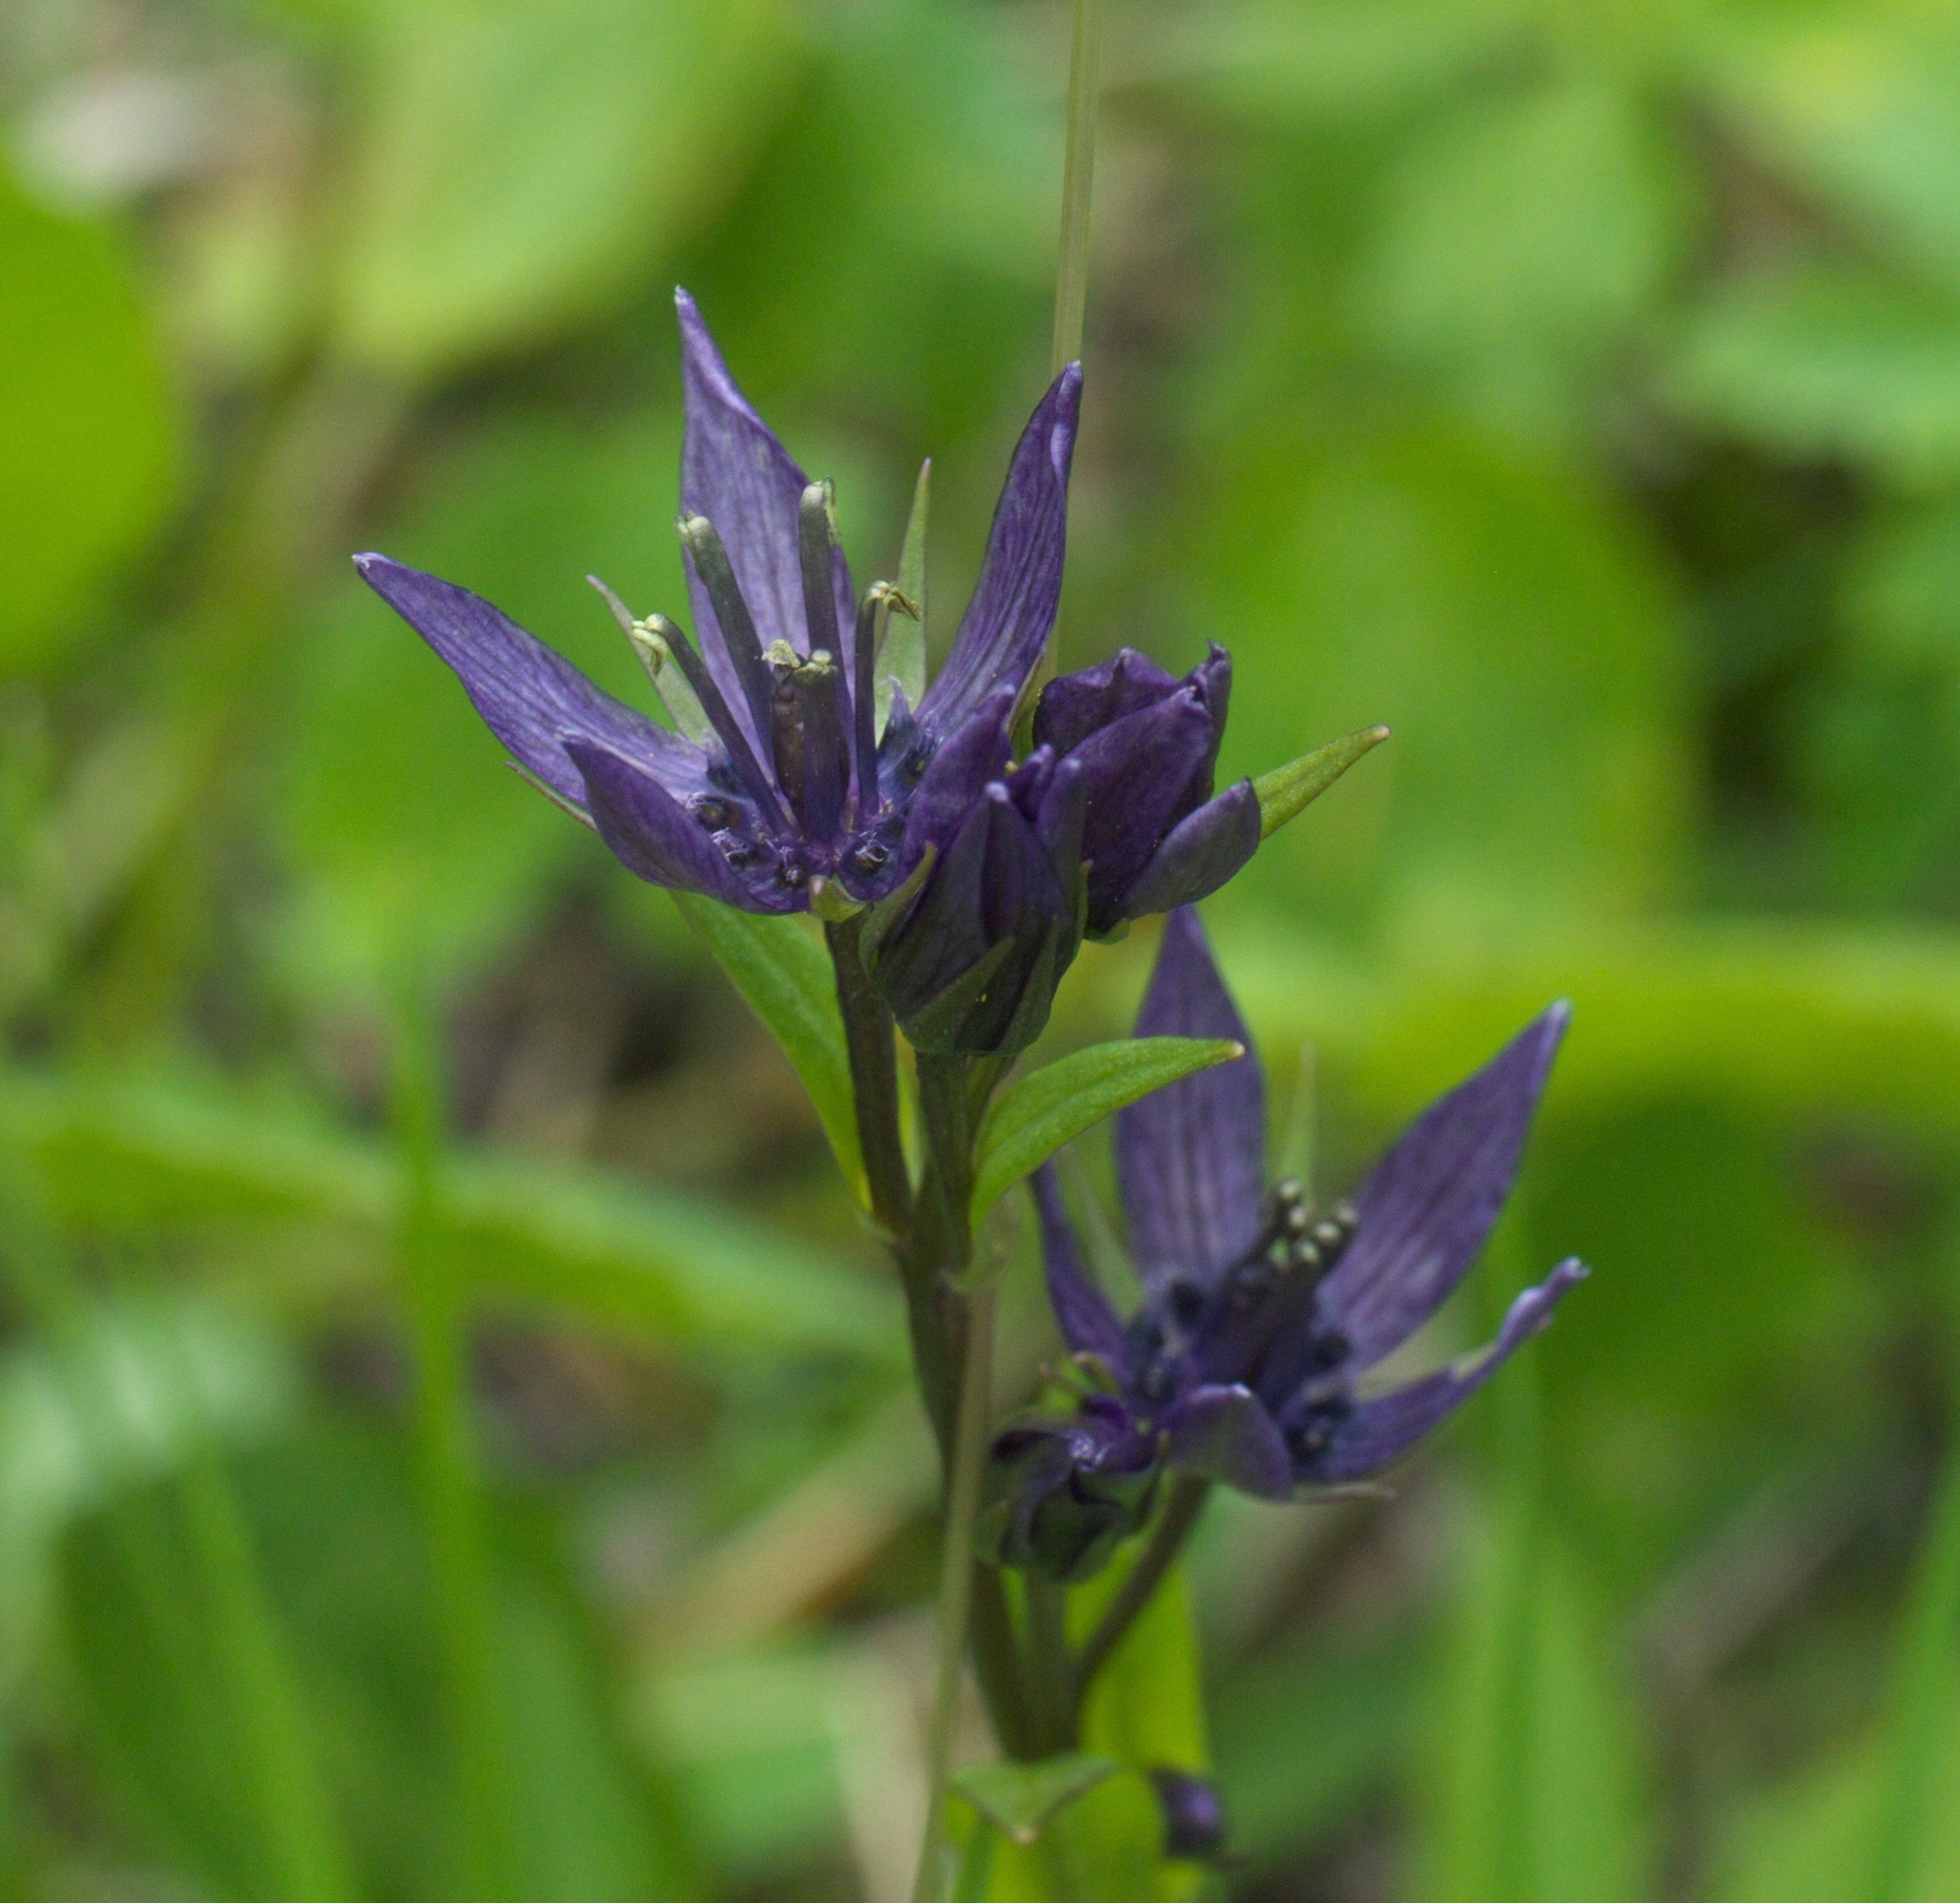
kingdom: Plantae
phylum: Tracheophyta
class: Magnoliopsida
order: Gentianales
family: Gentianaceae
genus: Swertia
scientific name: Swertia perennis
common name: Alpine bog swertia
